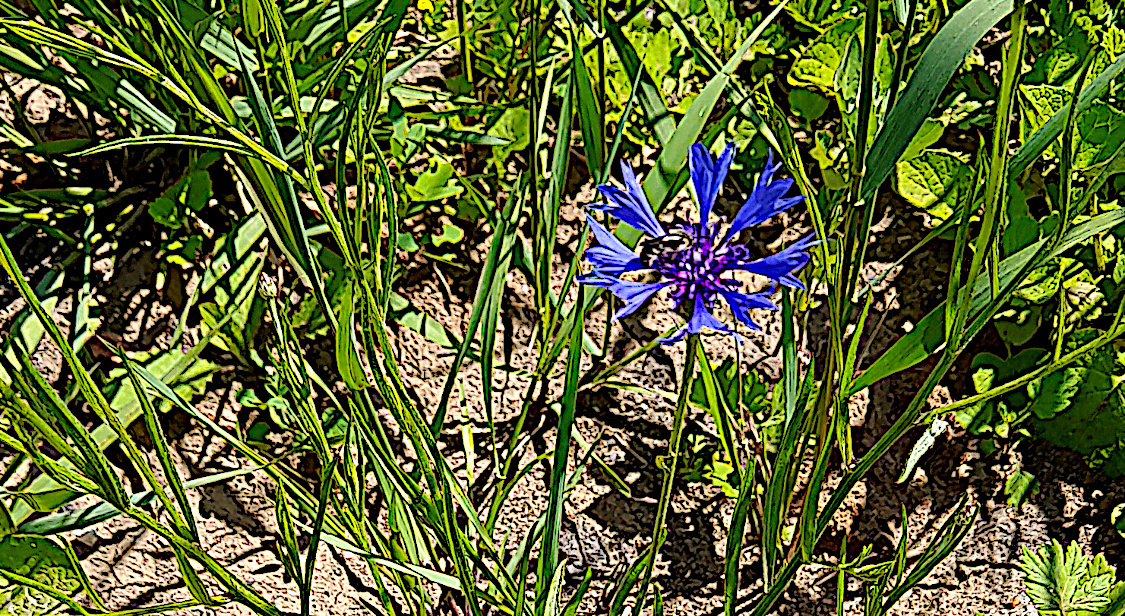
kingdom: Plantae
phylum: Tracheophyta
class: Magnoliopsida
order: Asterales
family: Asteraceae
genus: Centaurea
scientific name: Centaurea cyanus
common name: Cornflower
